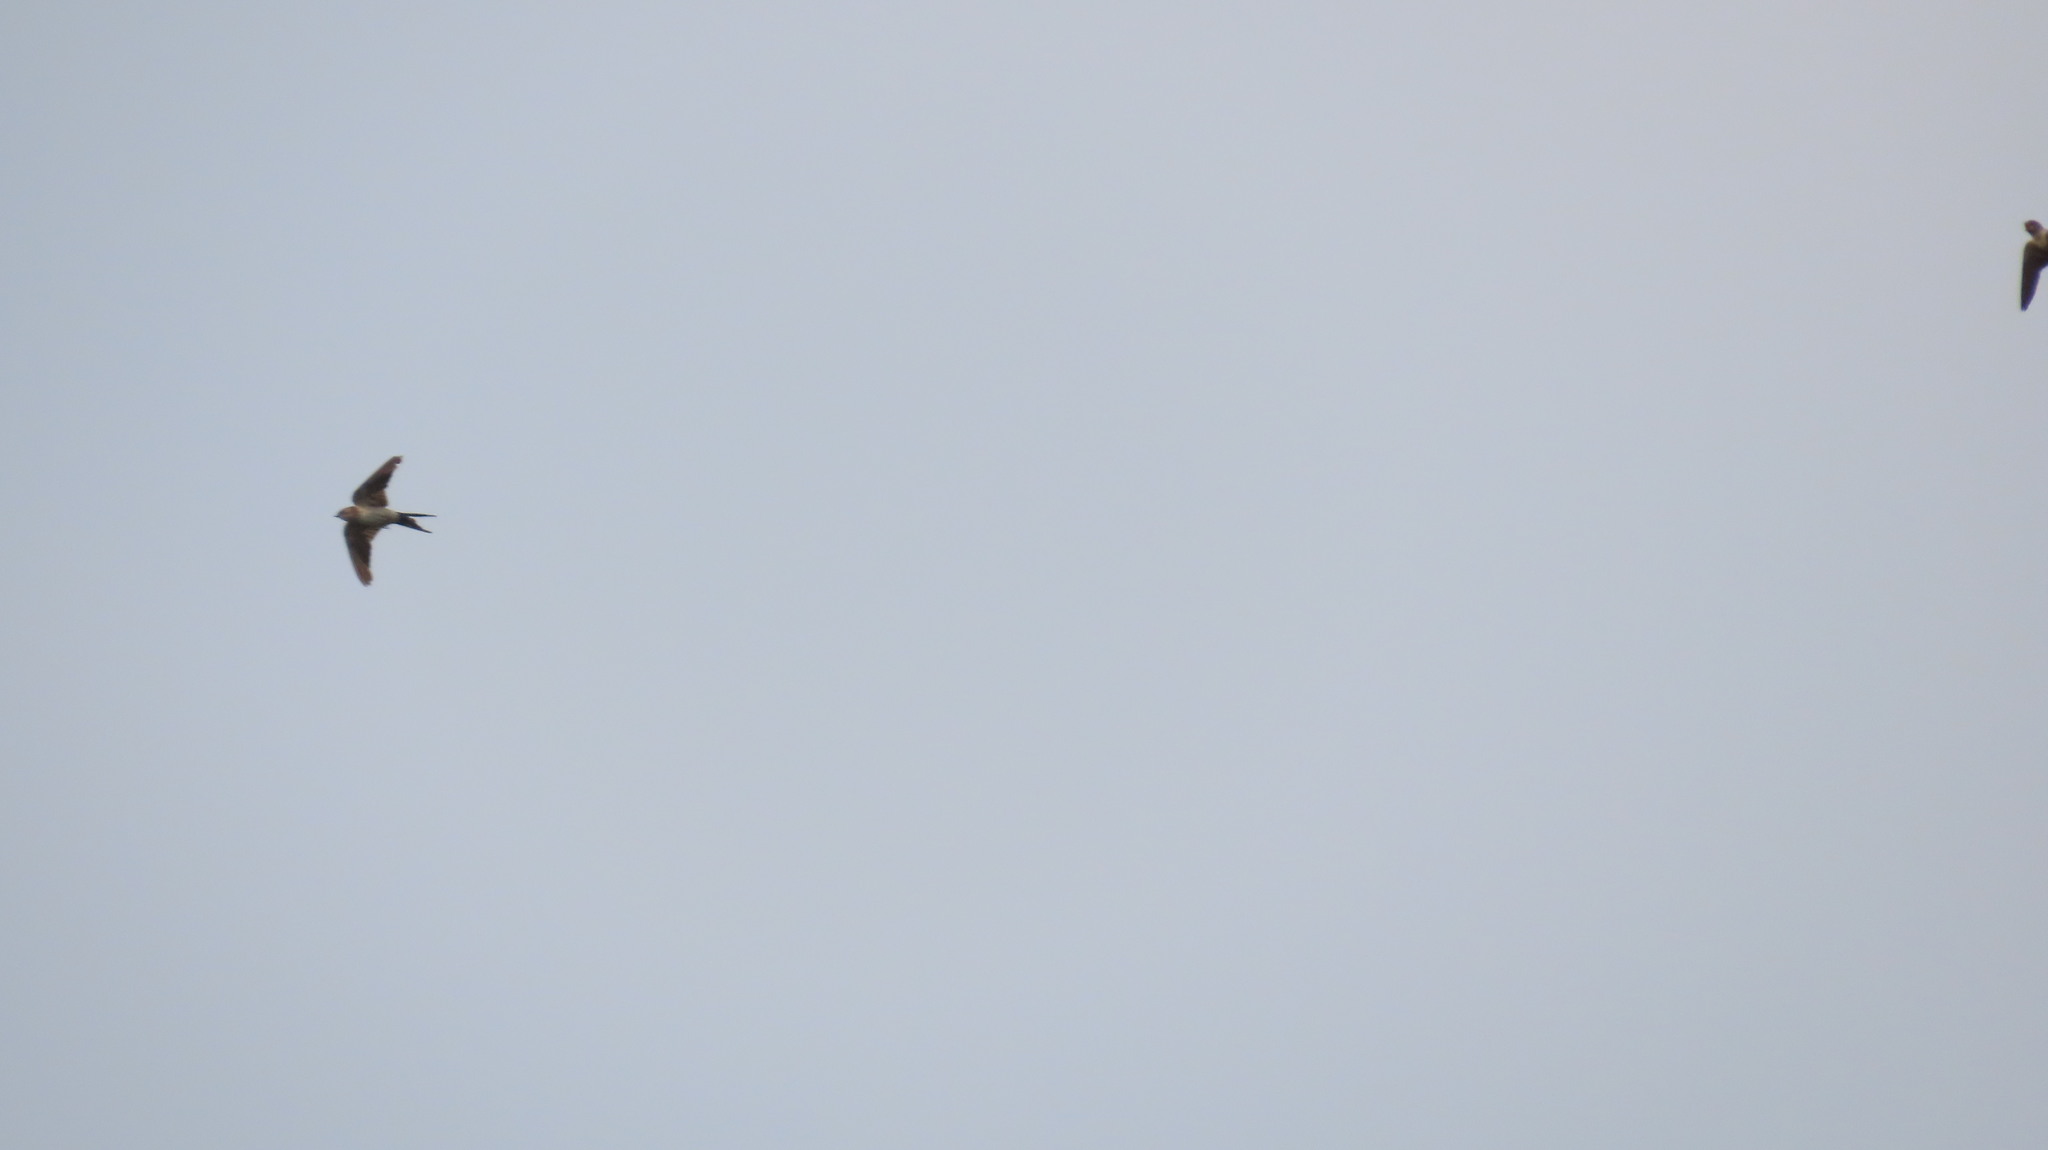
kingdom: Animalia
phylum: Chordata
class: Aves
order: Passeriformes
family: Hirundinidae
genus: Cecropis
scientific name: Cecropis daurica
